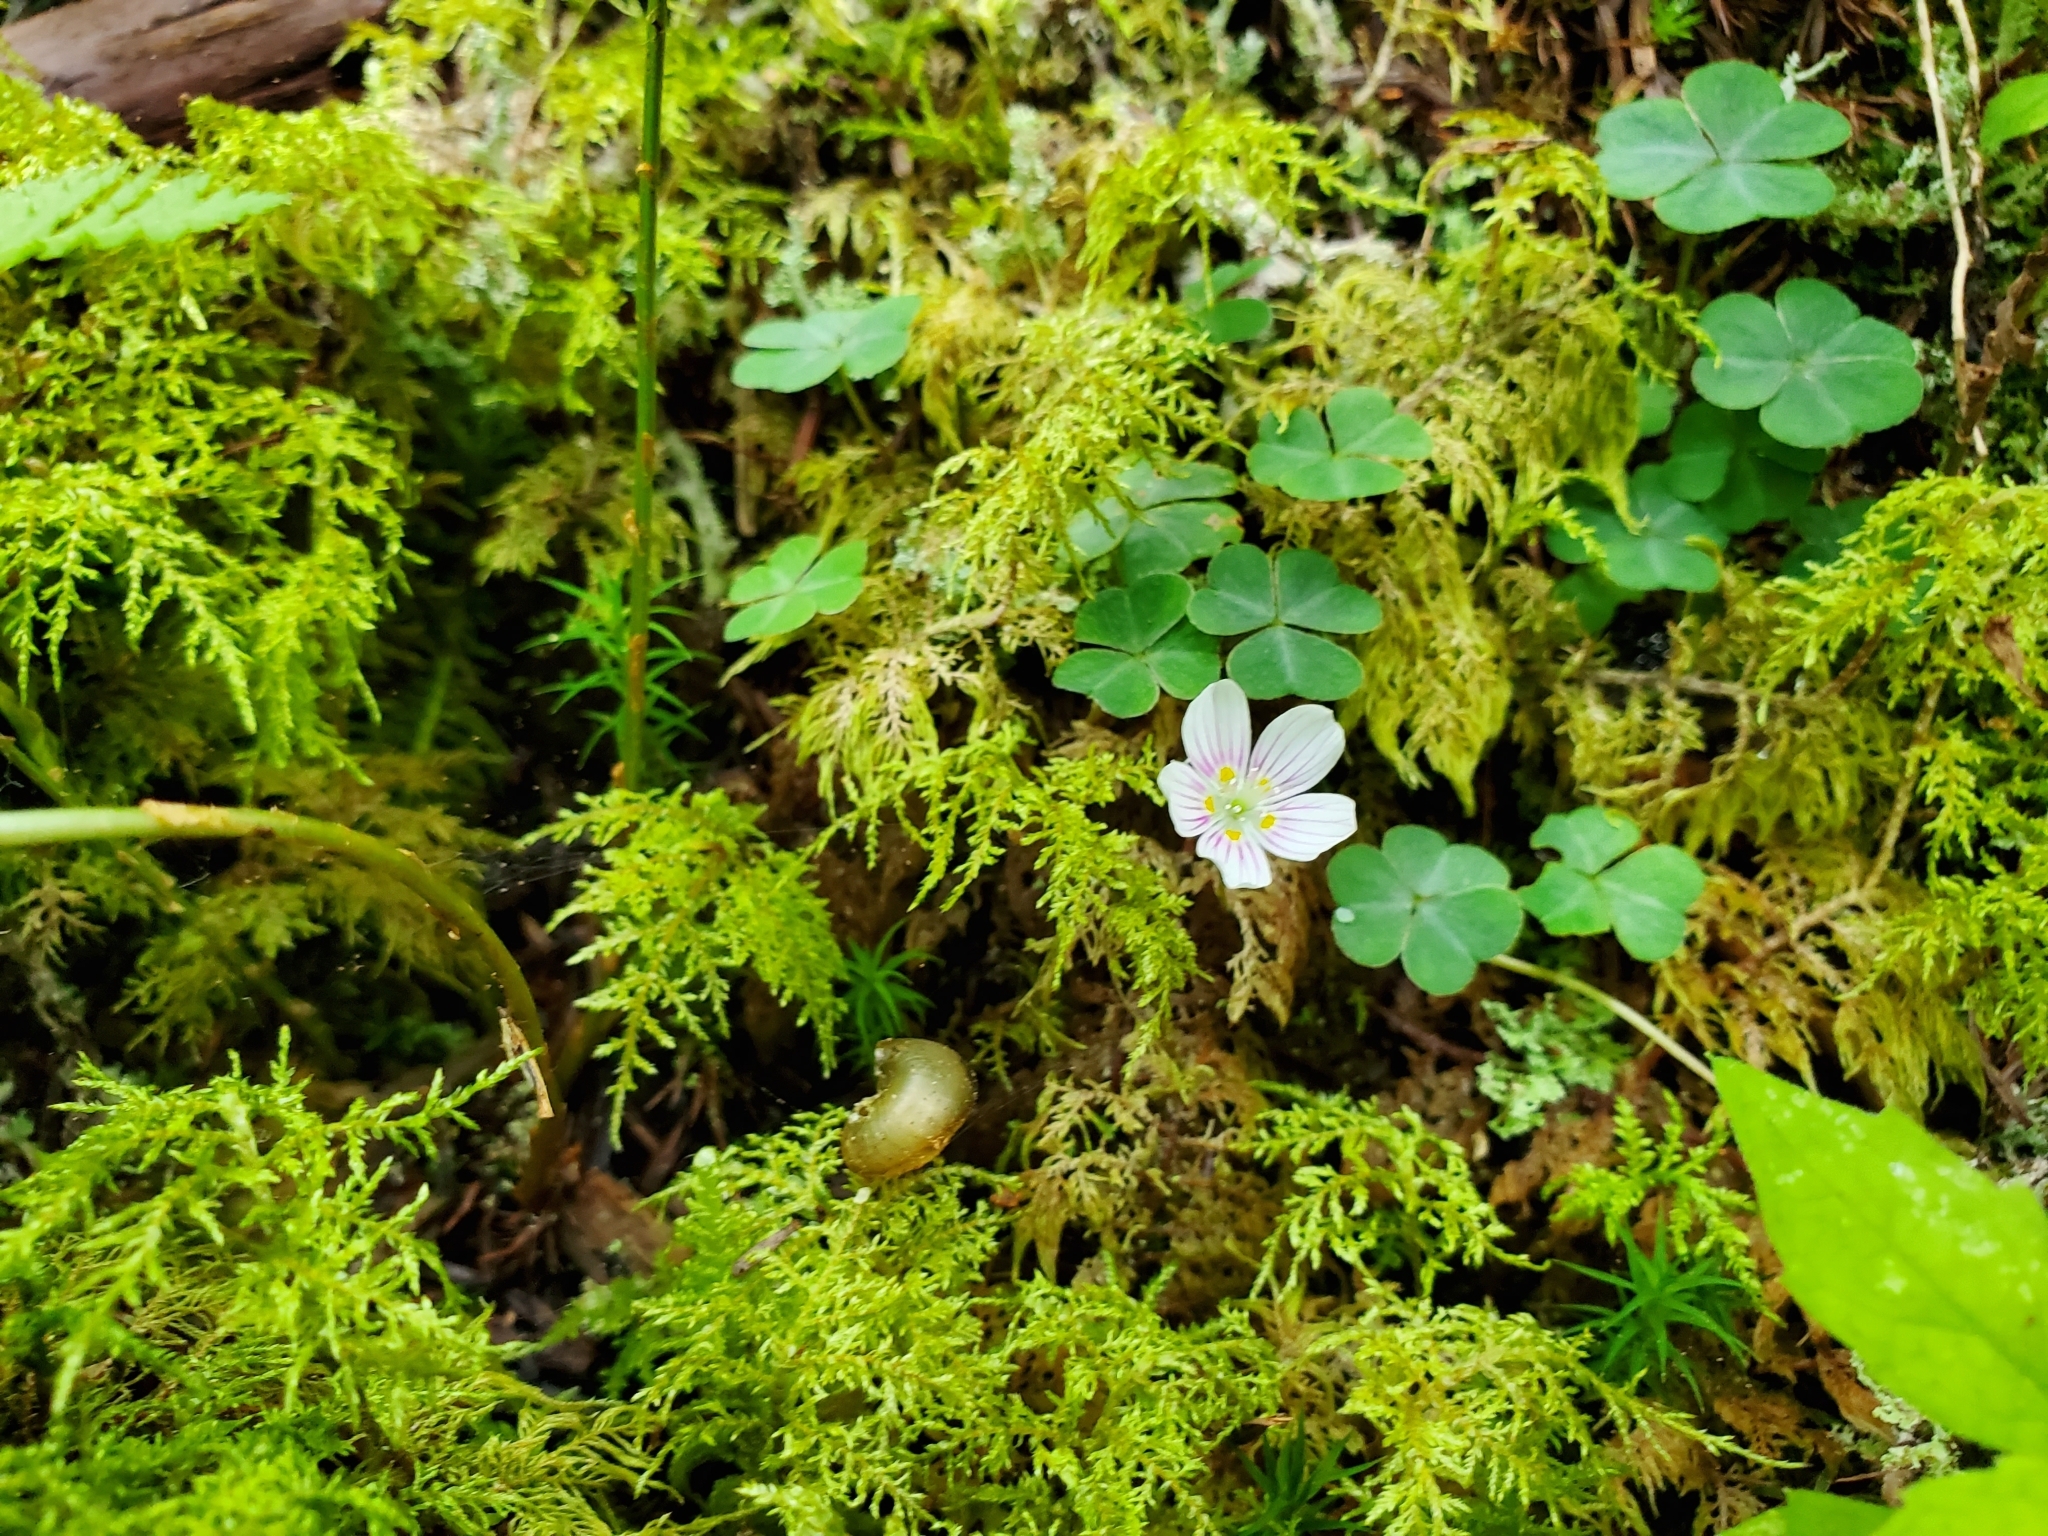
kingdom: Plantae
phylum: Tracheophyta
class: Magnoliopsida
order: Oxalidales
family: Oxalidaceae
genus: Oxalis
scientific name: Oxalis montana
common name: American wood-sorrel
